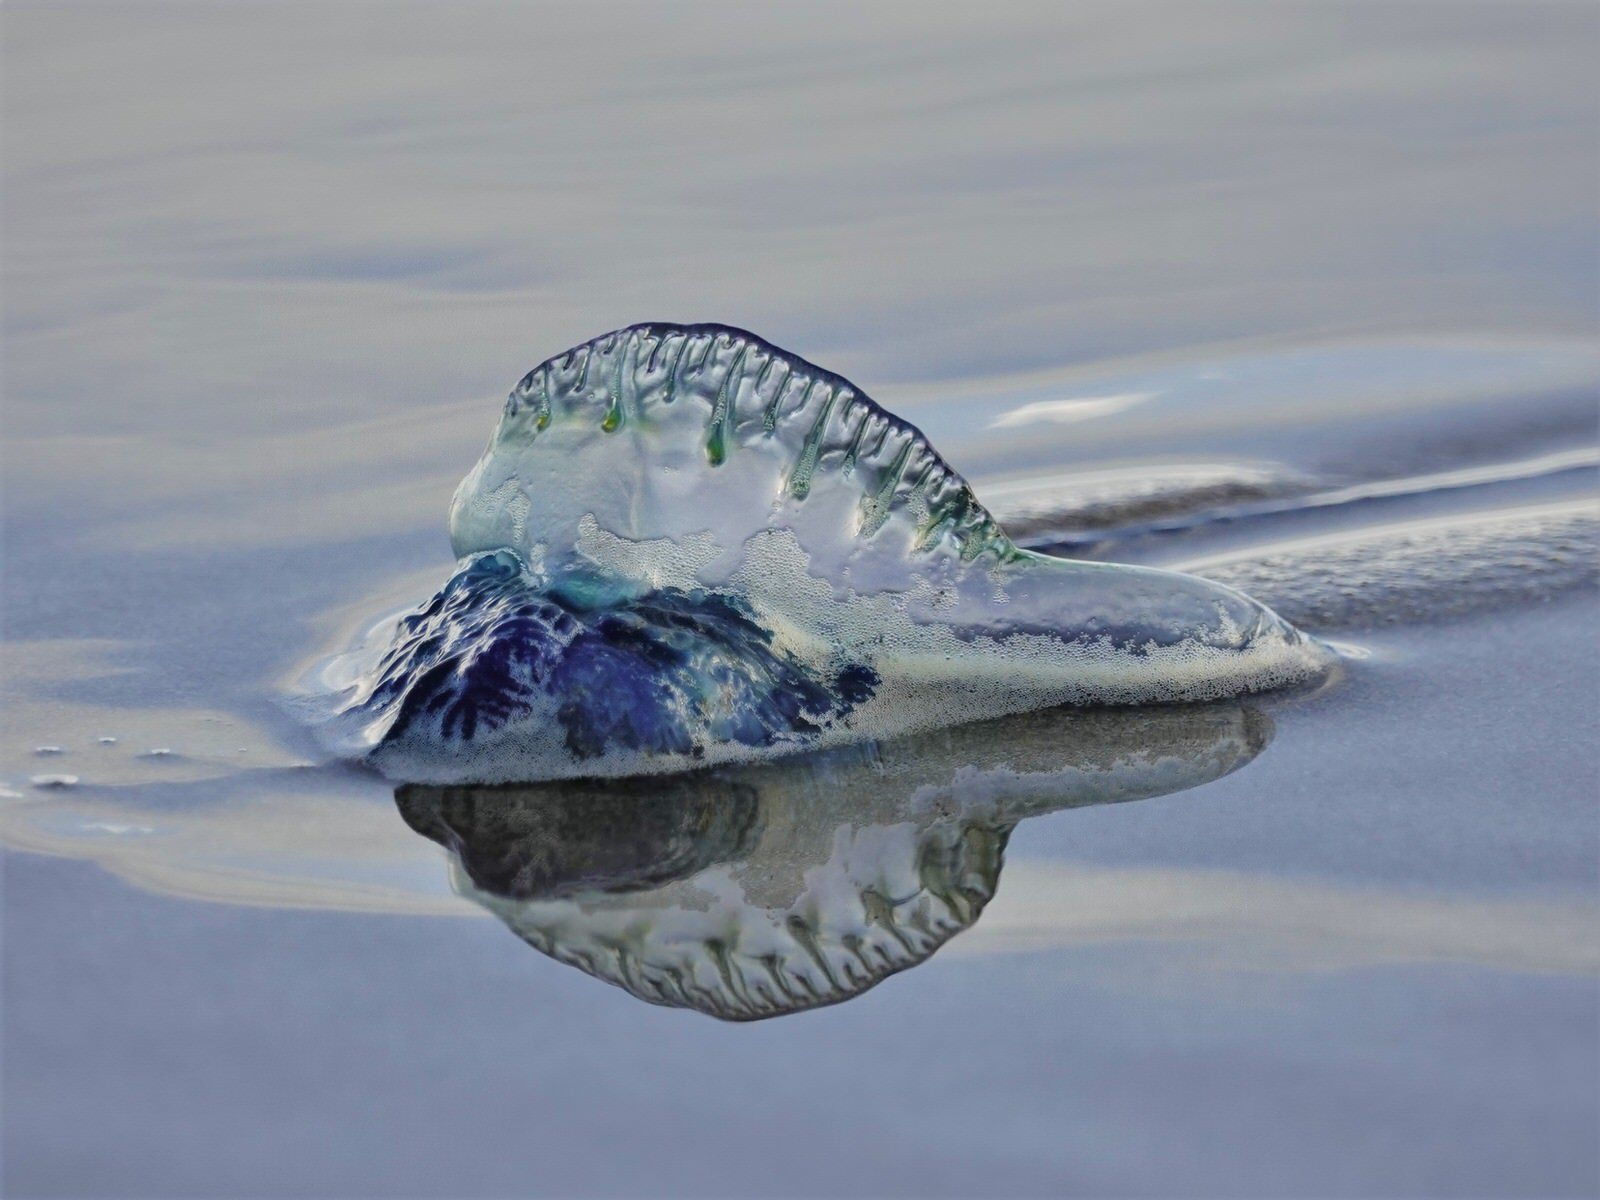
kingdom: Animalia
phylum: Cnidaria
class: Hydrozoa
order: Siphonophorae
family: Physaliidae
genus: Physalia
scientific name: Physalia physalis
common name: Portuguese man-of-war
